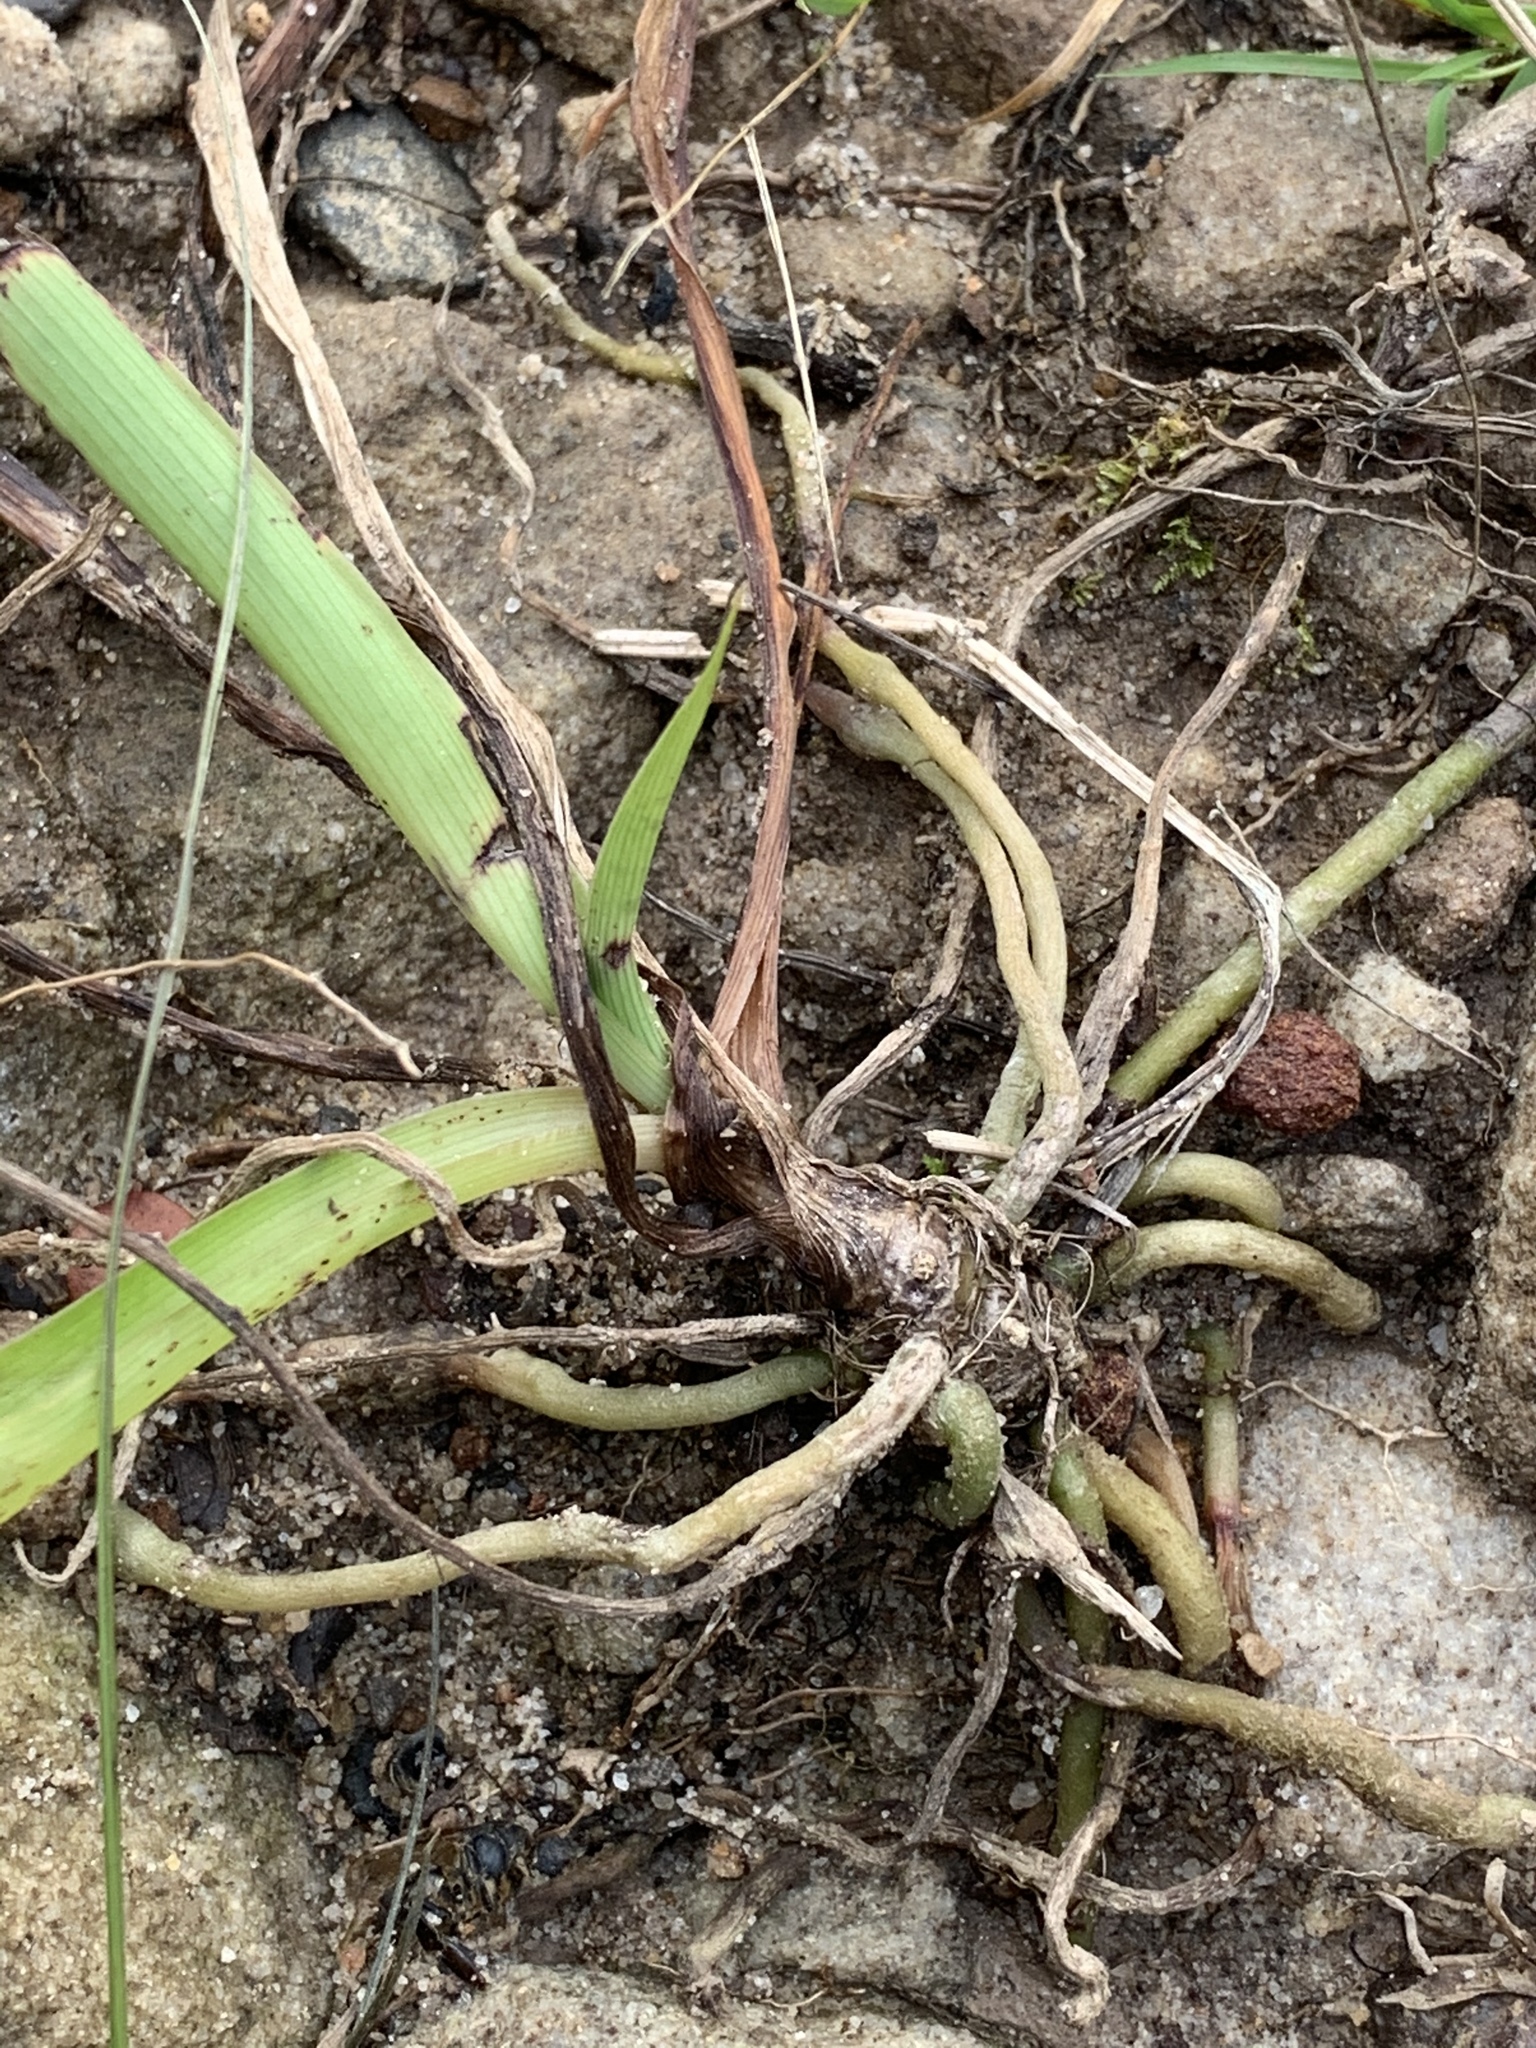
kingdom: Plantae
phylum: Tracheophyta
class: Liliopsida
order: Asparagales
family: Asparagaceae
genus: Chlorophytum
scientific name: Chlorophytum comosum
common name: Spider plant
